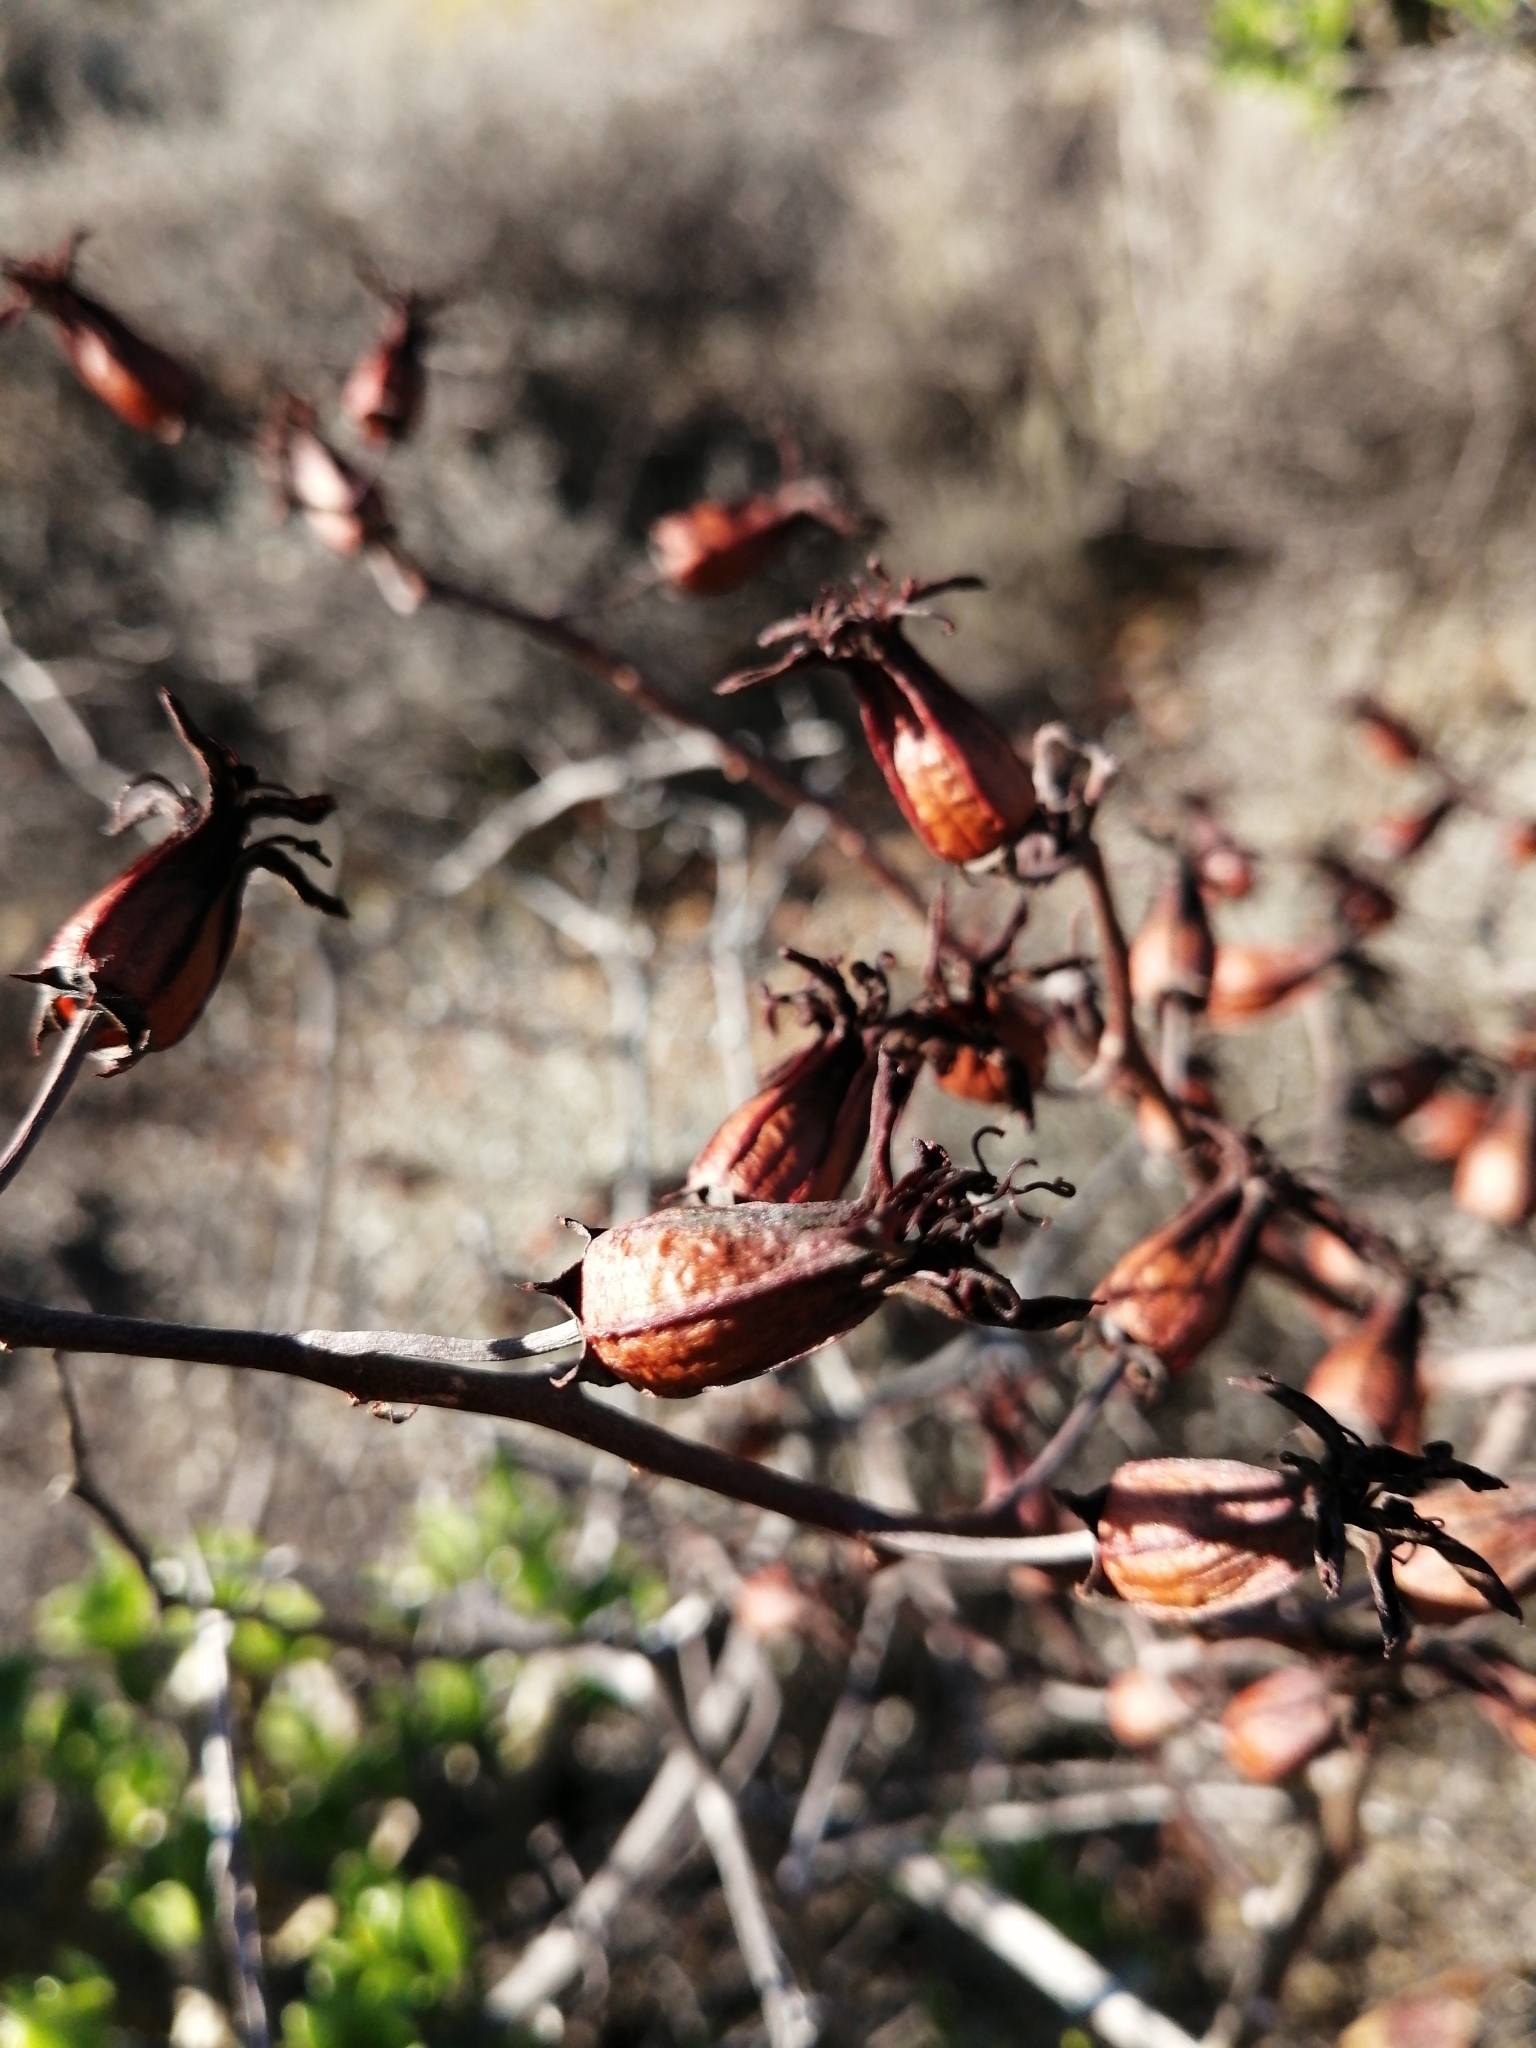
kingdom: Plantae
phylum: Tracheophyta
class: Magnoliopsida
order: Saxifragales
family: Crassulaceae
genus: Tylecodon
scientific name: Tylecodon paniculatus
